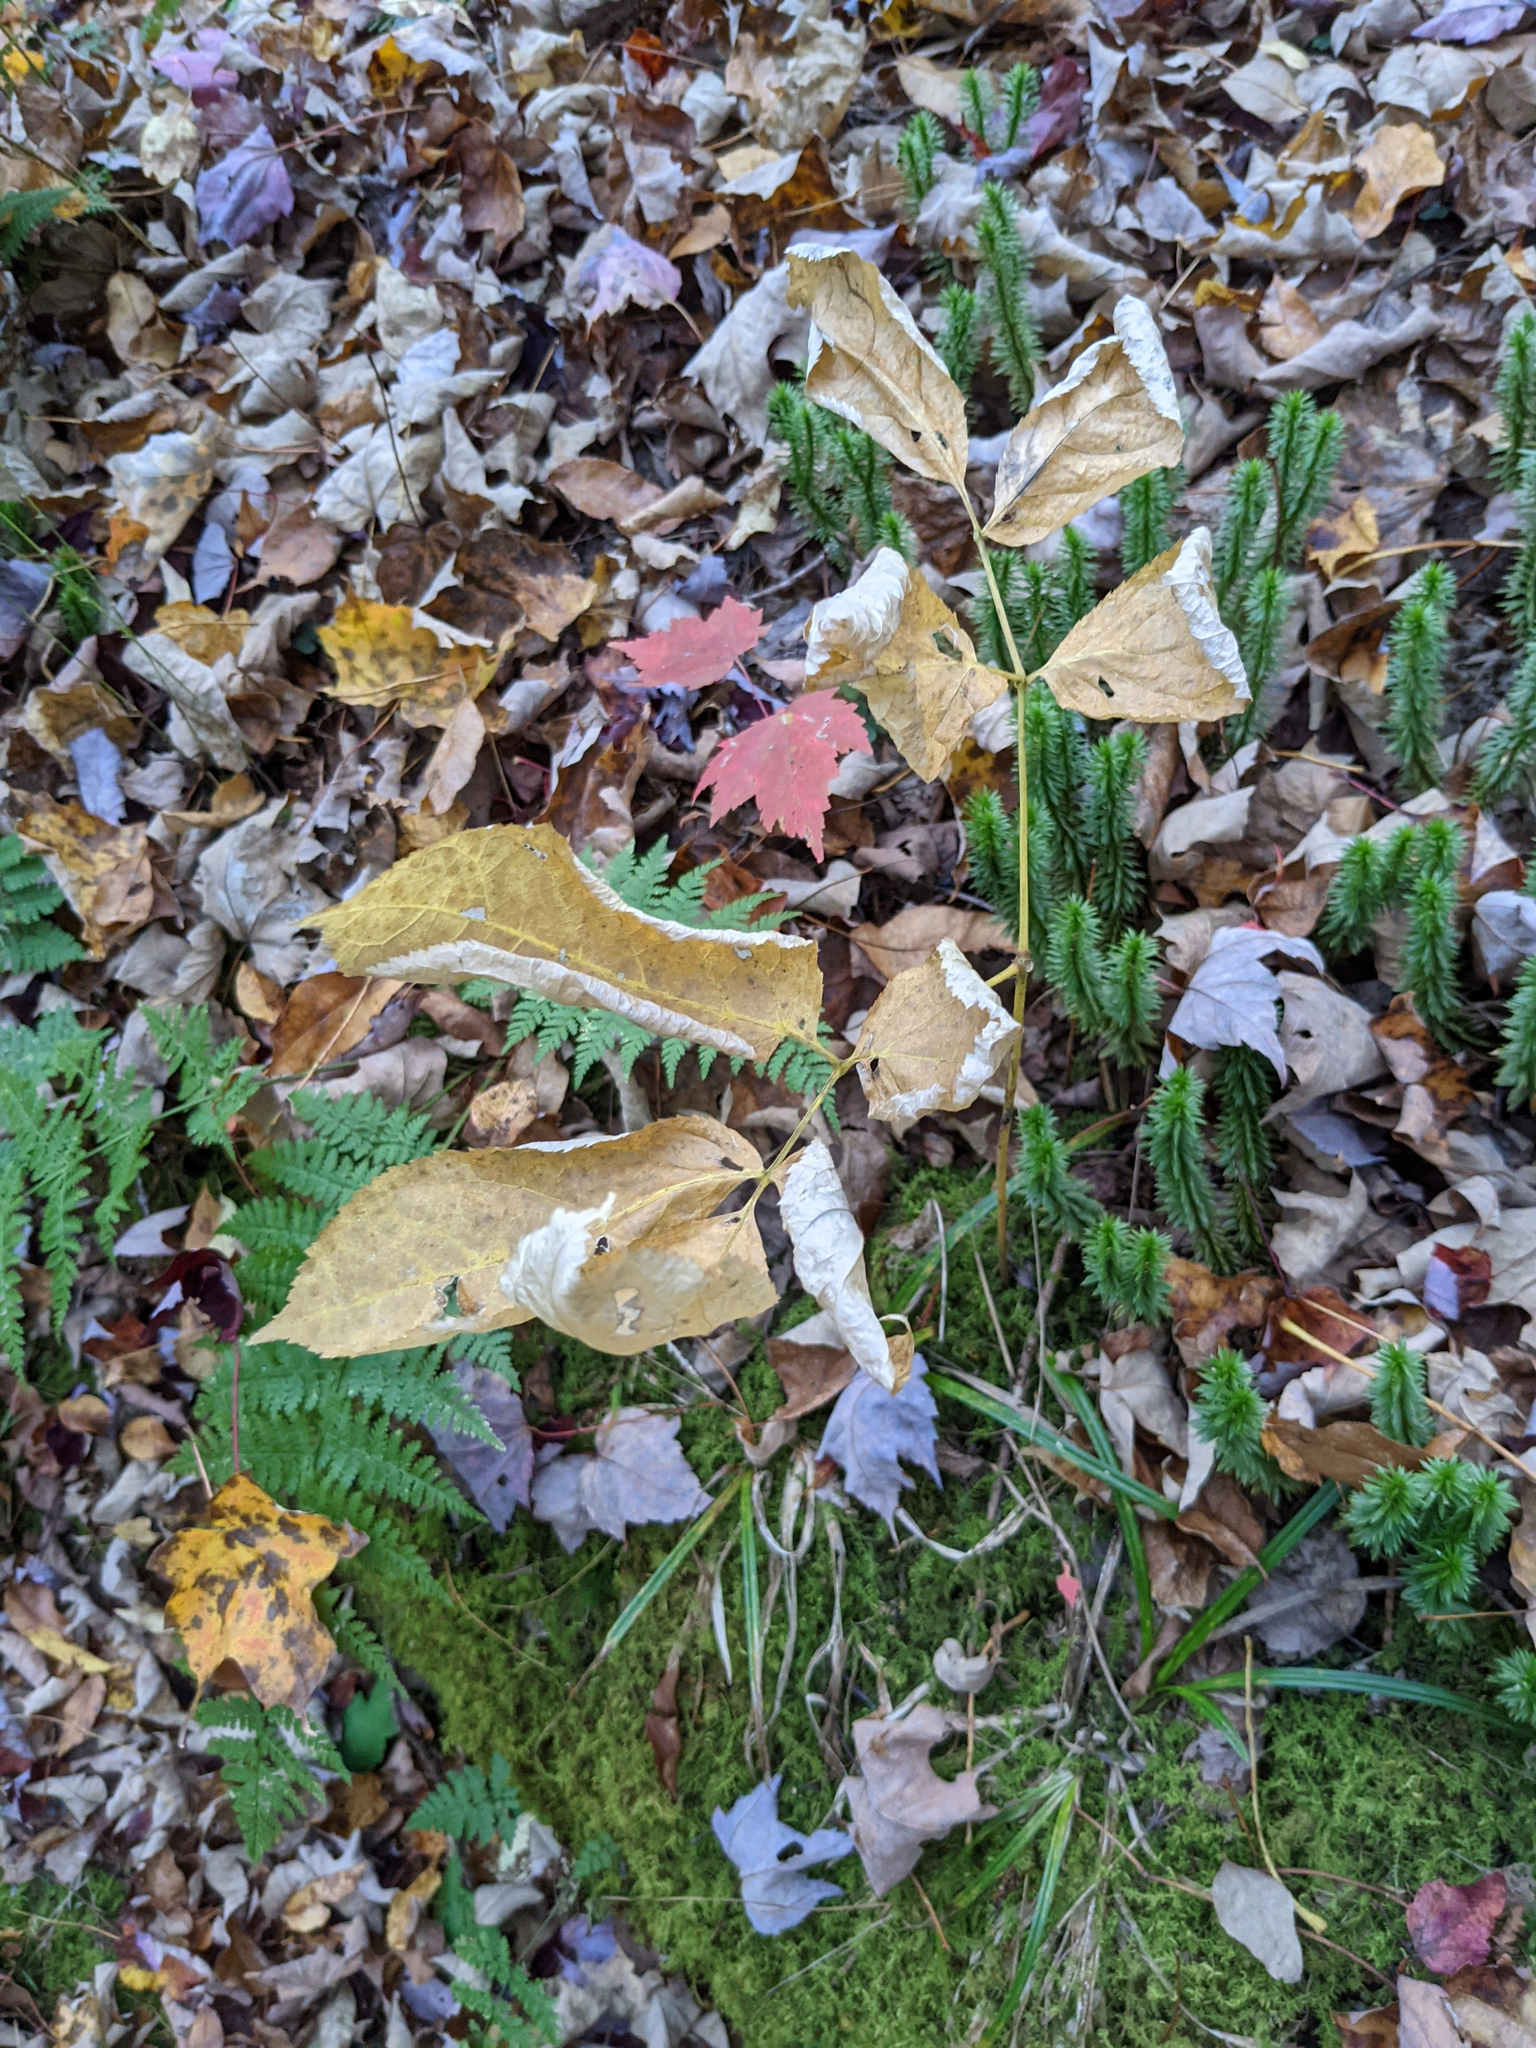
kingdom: Plantae
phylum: Tracheophyta
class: Magnoliopsida
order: Apiales
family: Araliaceae
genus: Aralia
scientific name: Aralia nudicaulis
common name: Wild sarsaparilla
